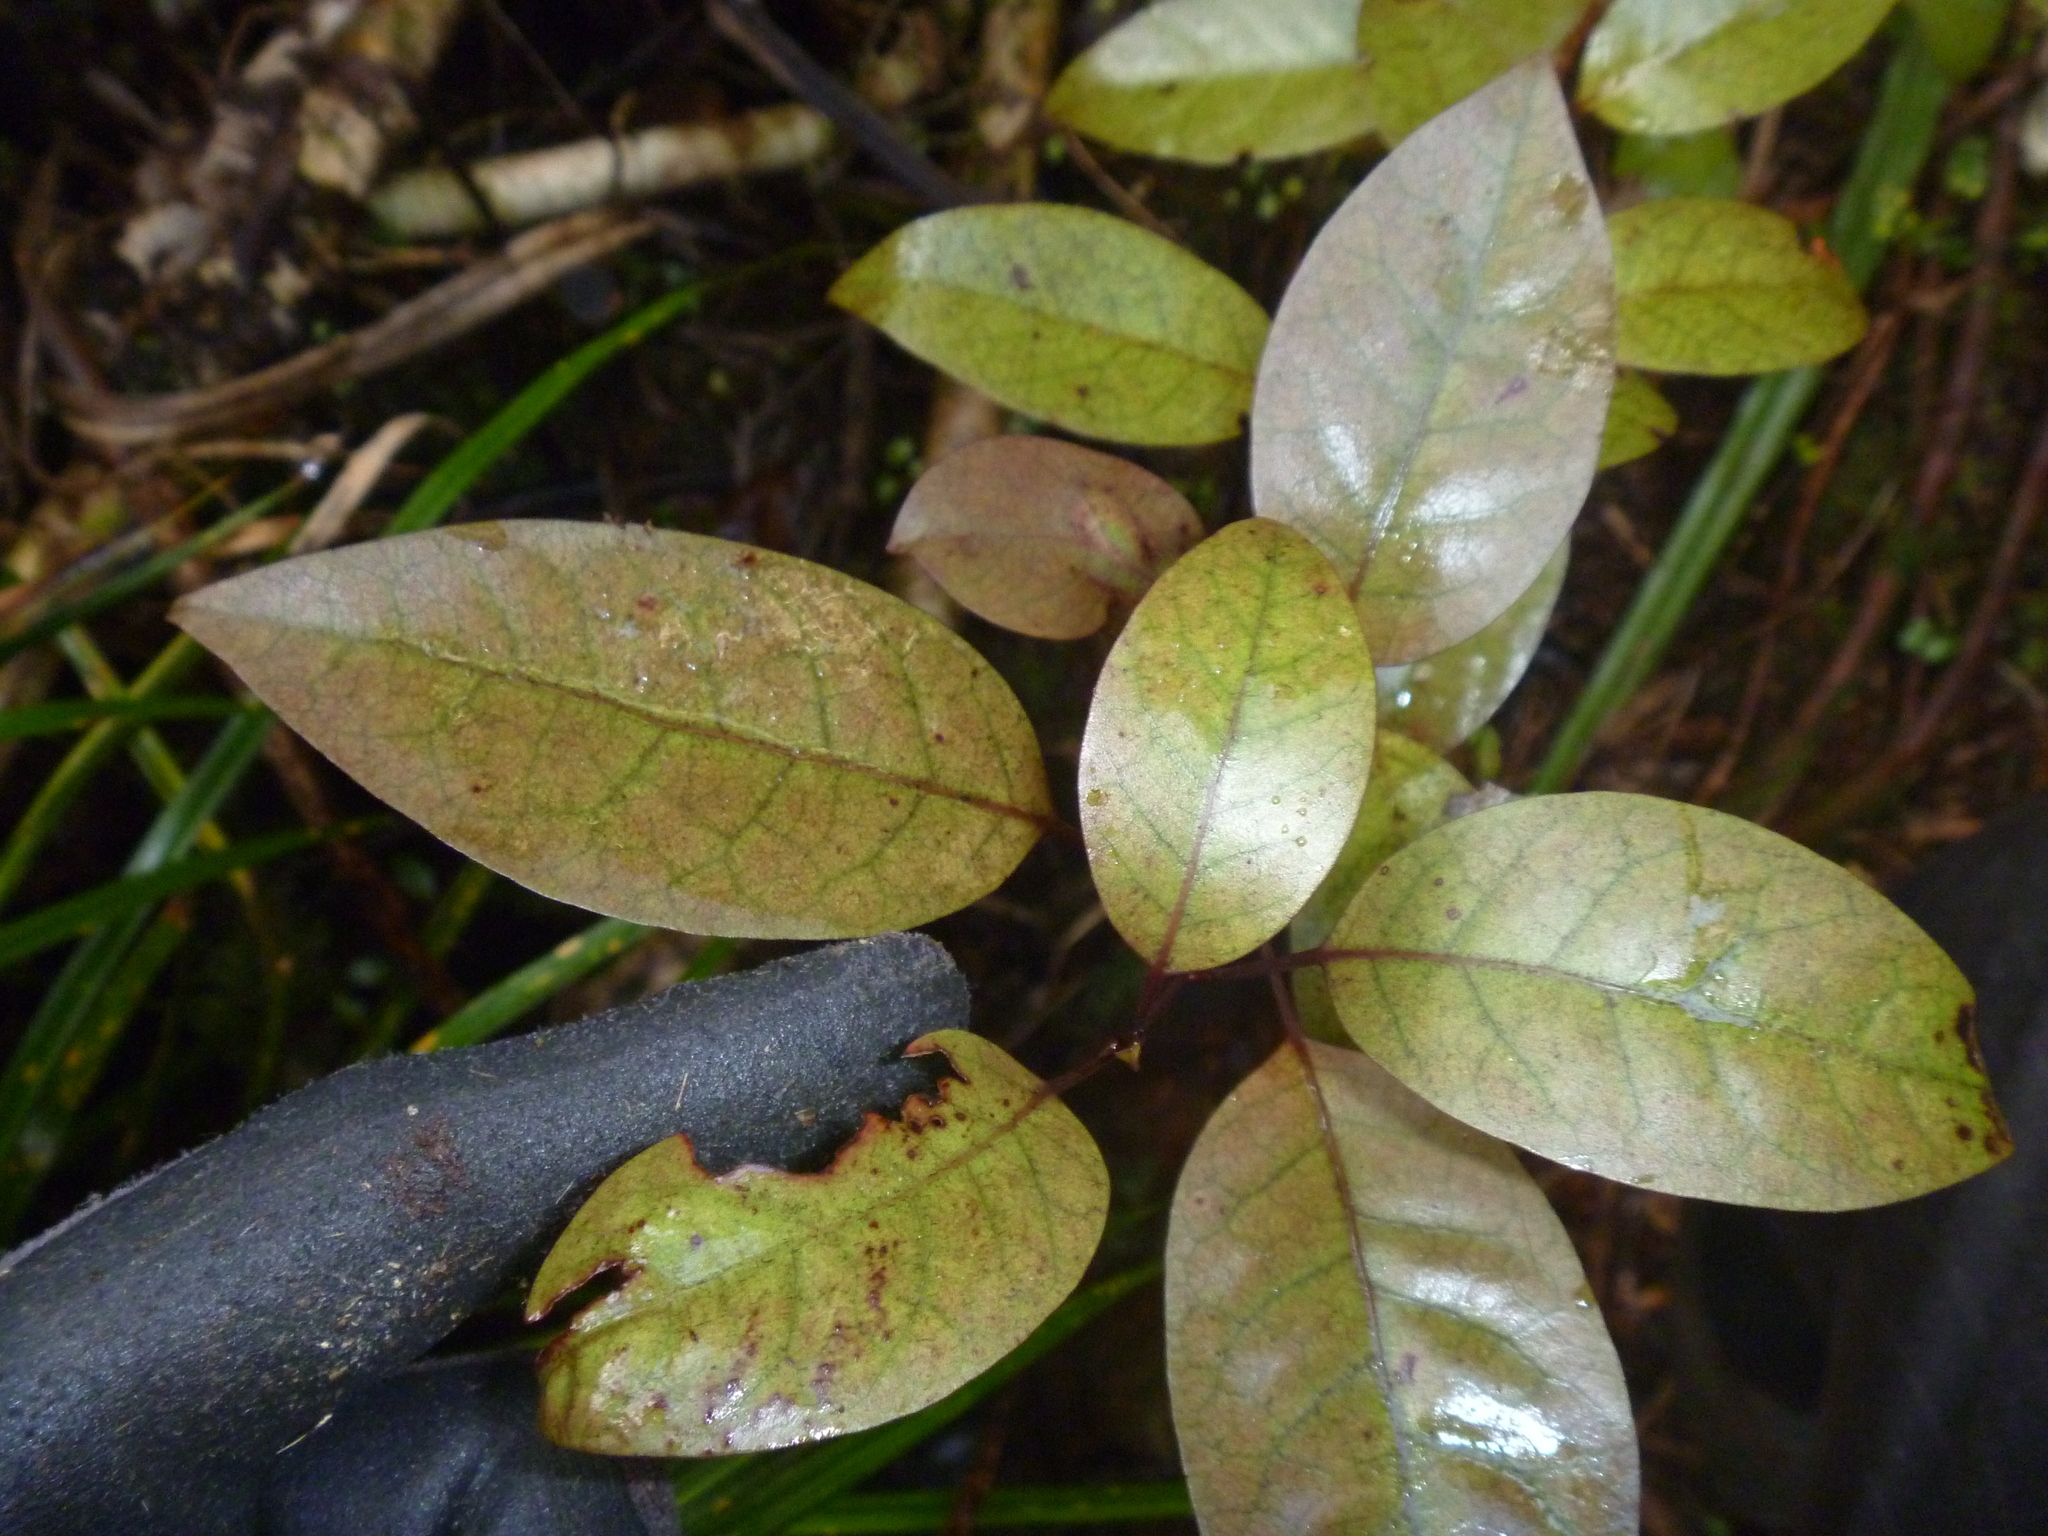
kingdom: Plantae
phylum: Tracheophyta
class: Magnoliopsida
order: Laurales
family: Lauraceae
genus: Litsea
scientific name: Litsea calicaris
